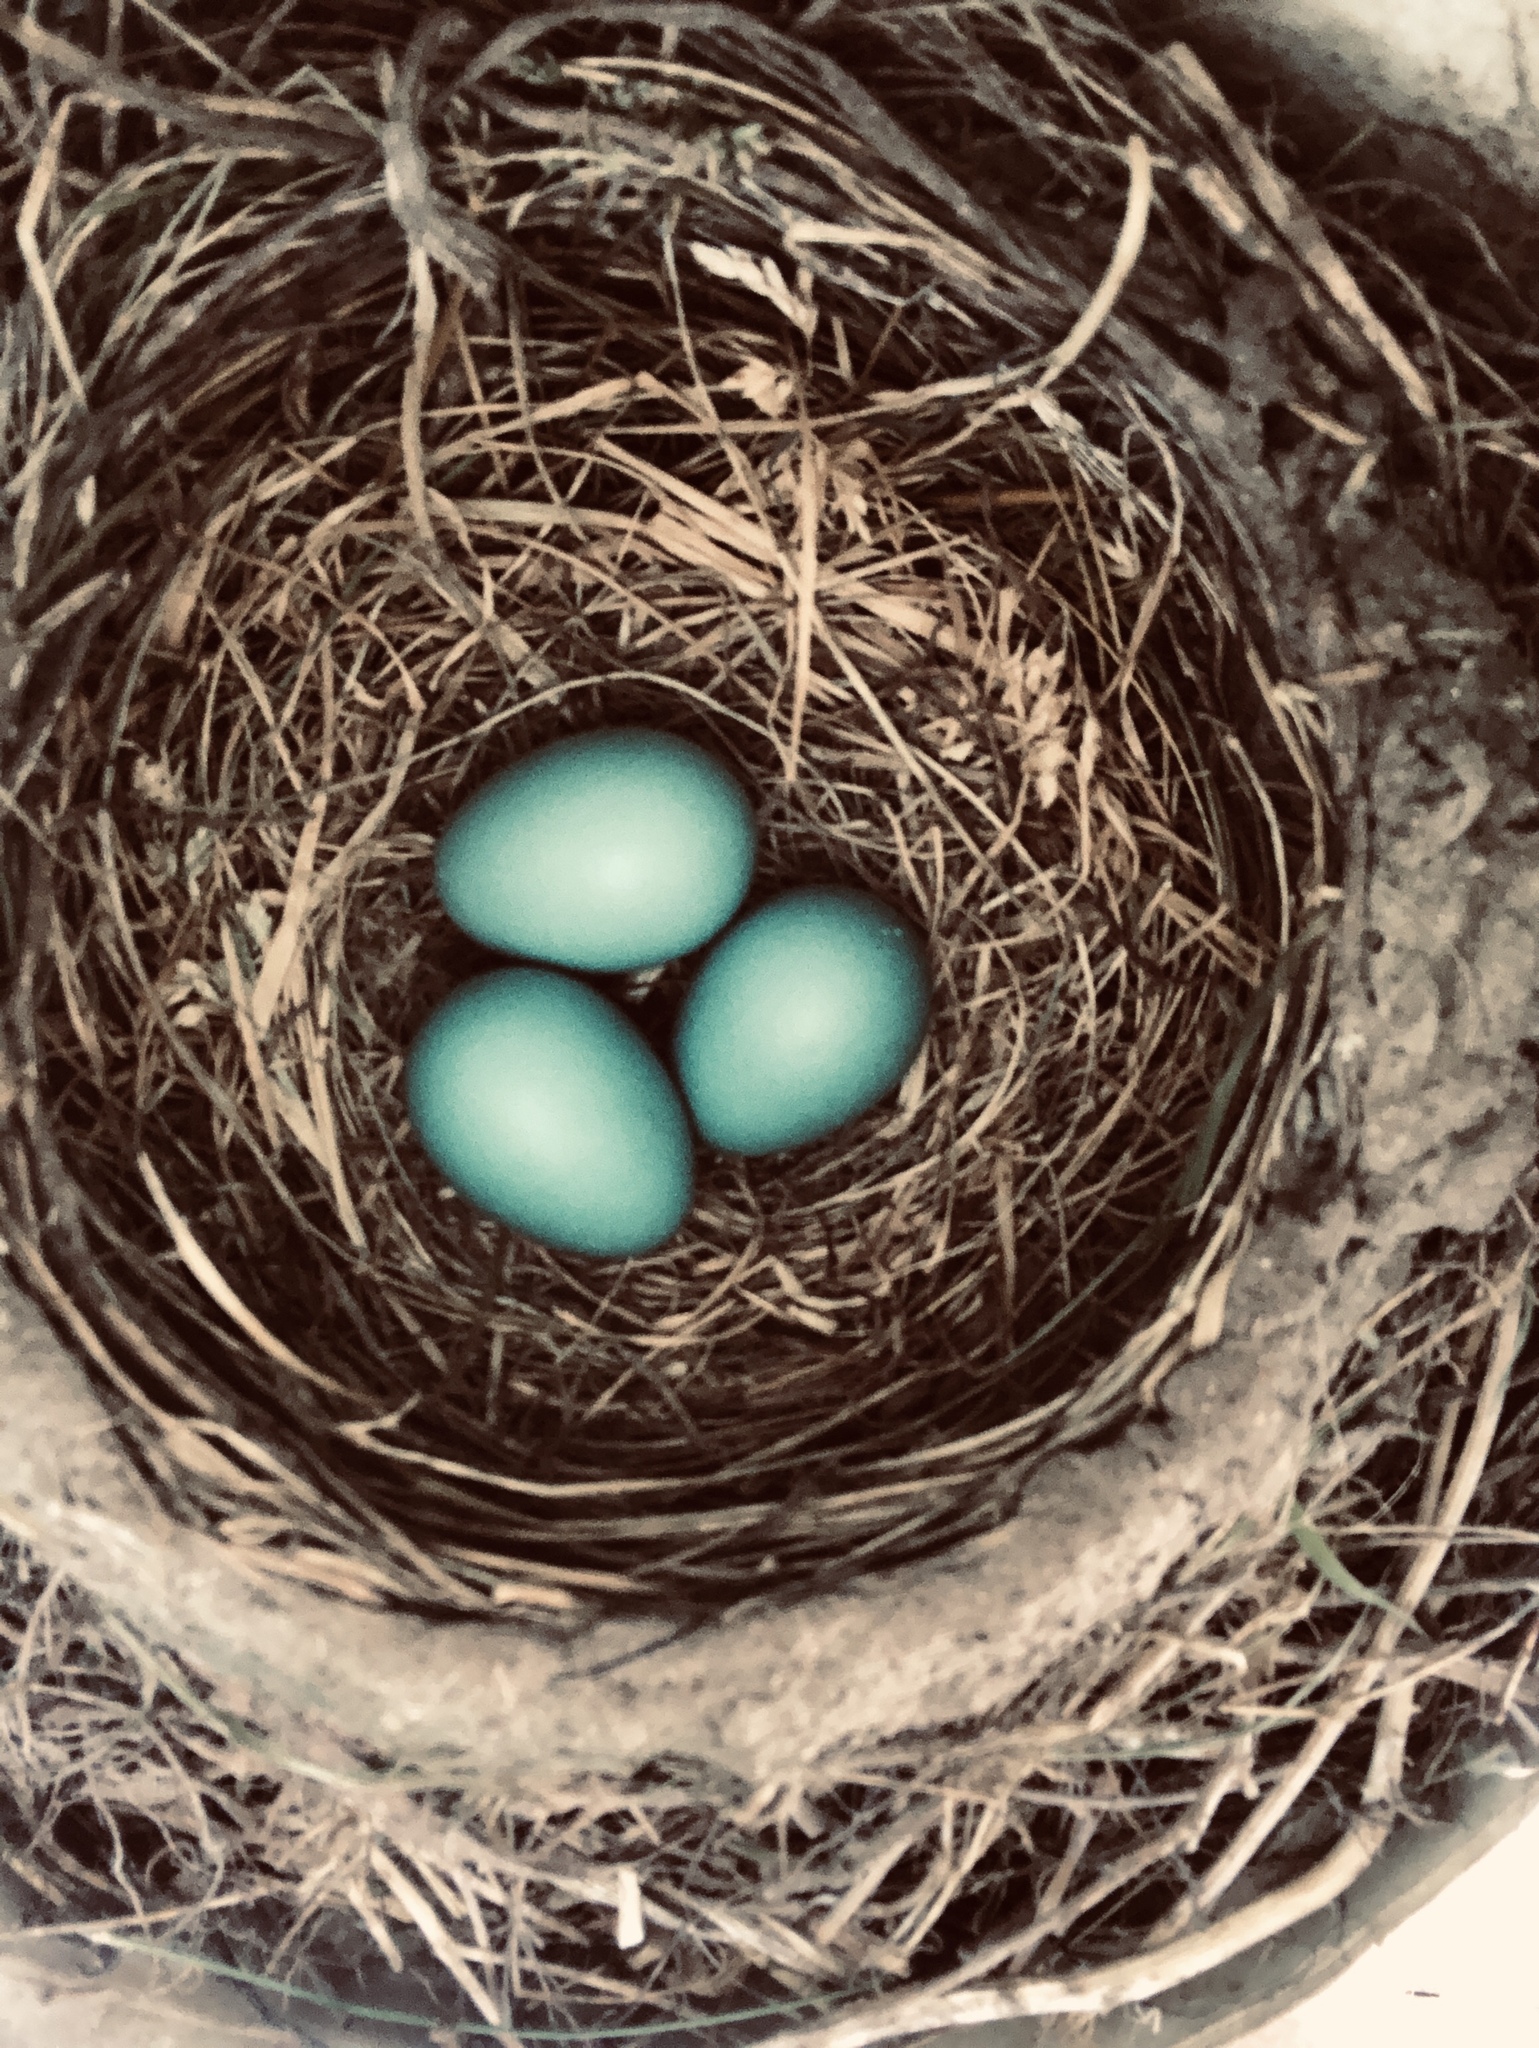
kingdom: Animalia
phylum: Chordata
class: Aves
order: Passeriformes
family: Turdidae
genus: Turdus
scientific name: Turdus migratorius
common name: American robin
